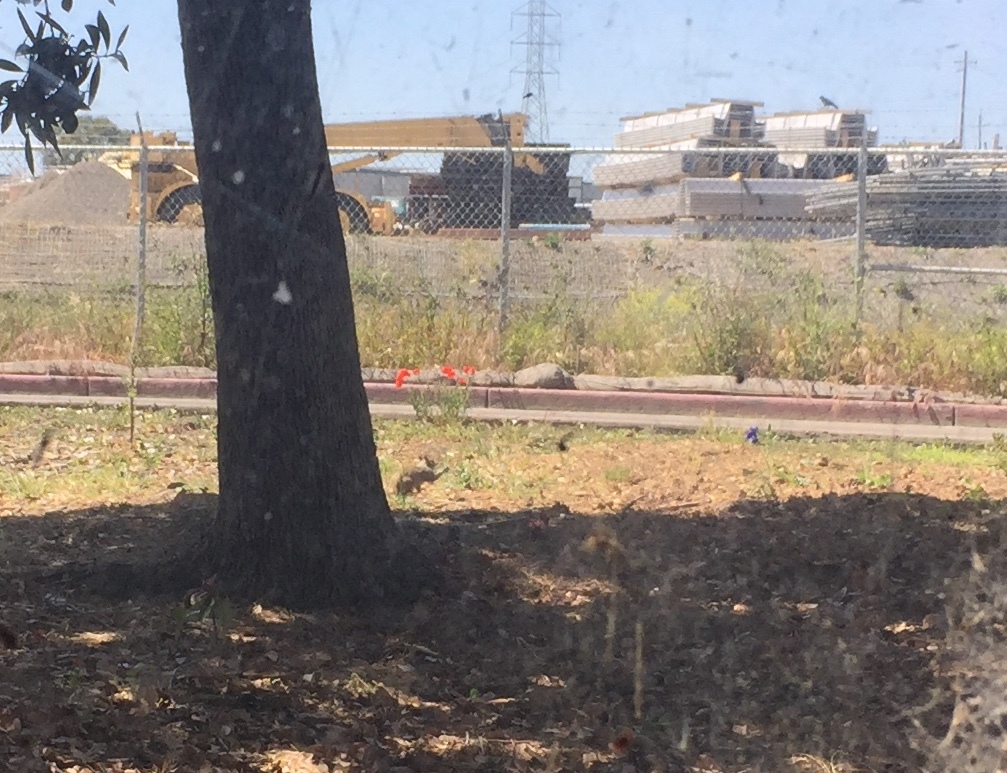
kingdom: Animalia
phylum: Chordata
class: Mammalia
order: Rodentia
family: Sciuridae
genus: Otospermophilus
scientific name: Otospermophilus beecheyi
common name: California ground squirrel
